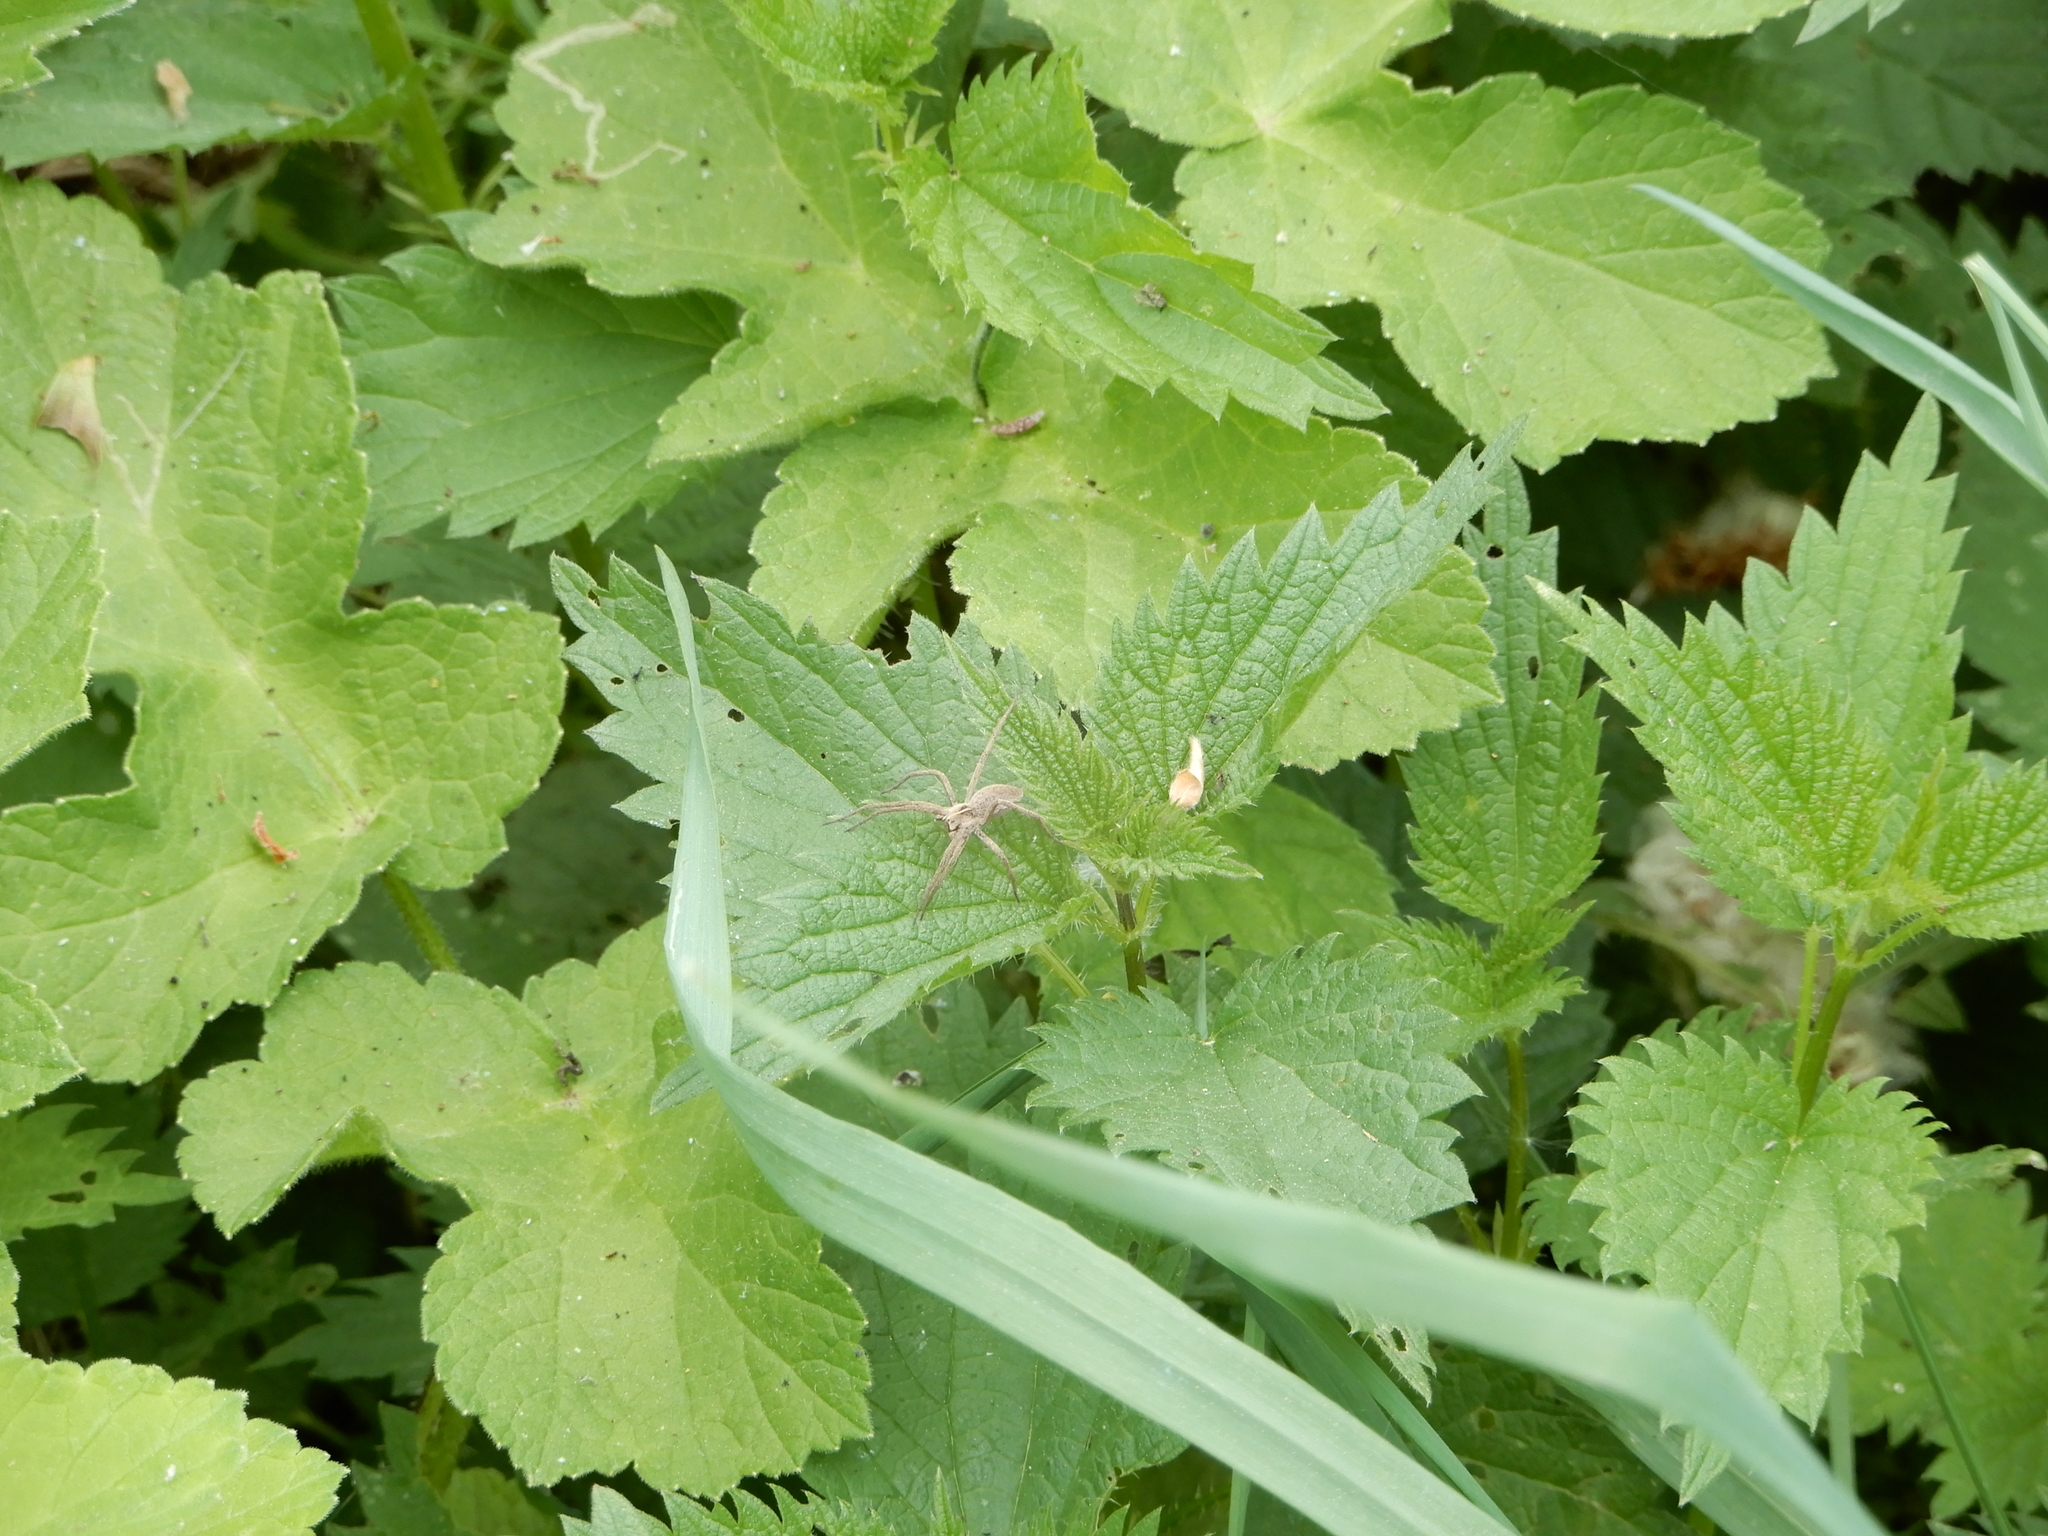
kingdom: Animalia
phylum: Arthropoda
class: Arachnida
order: Araneae
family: Pisauridae
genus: Pisaura
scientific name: Pisaura mirabilis
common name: Tent spider
